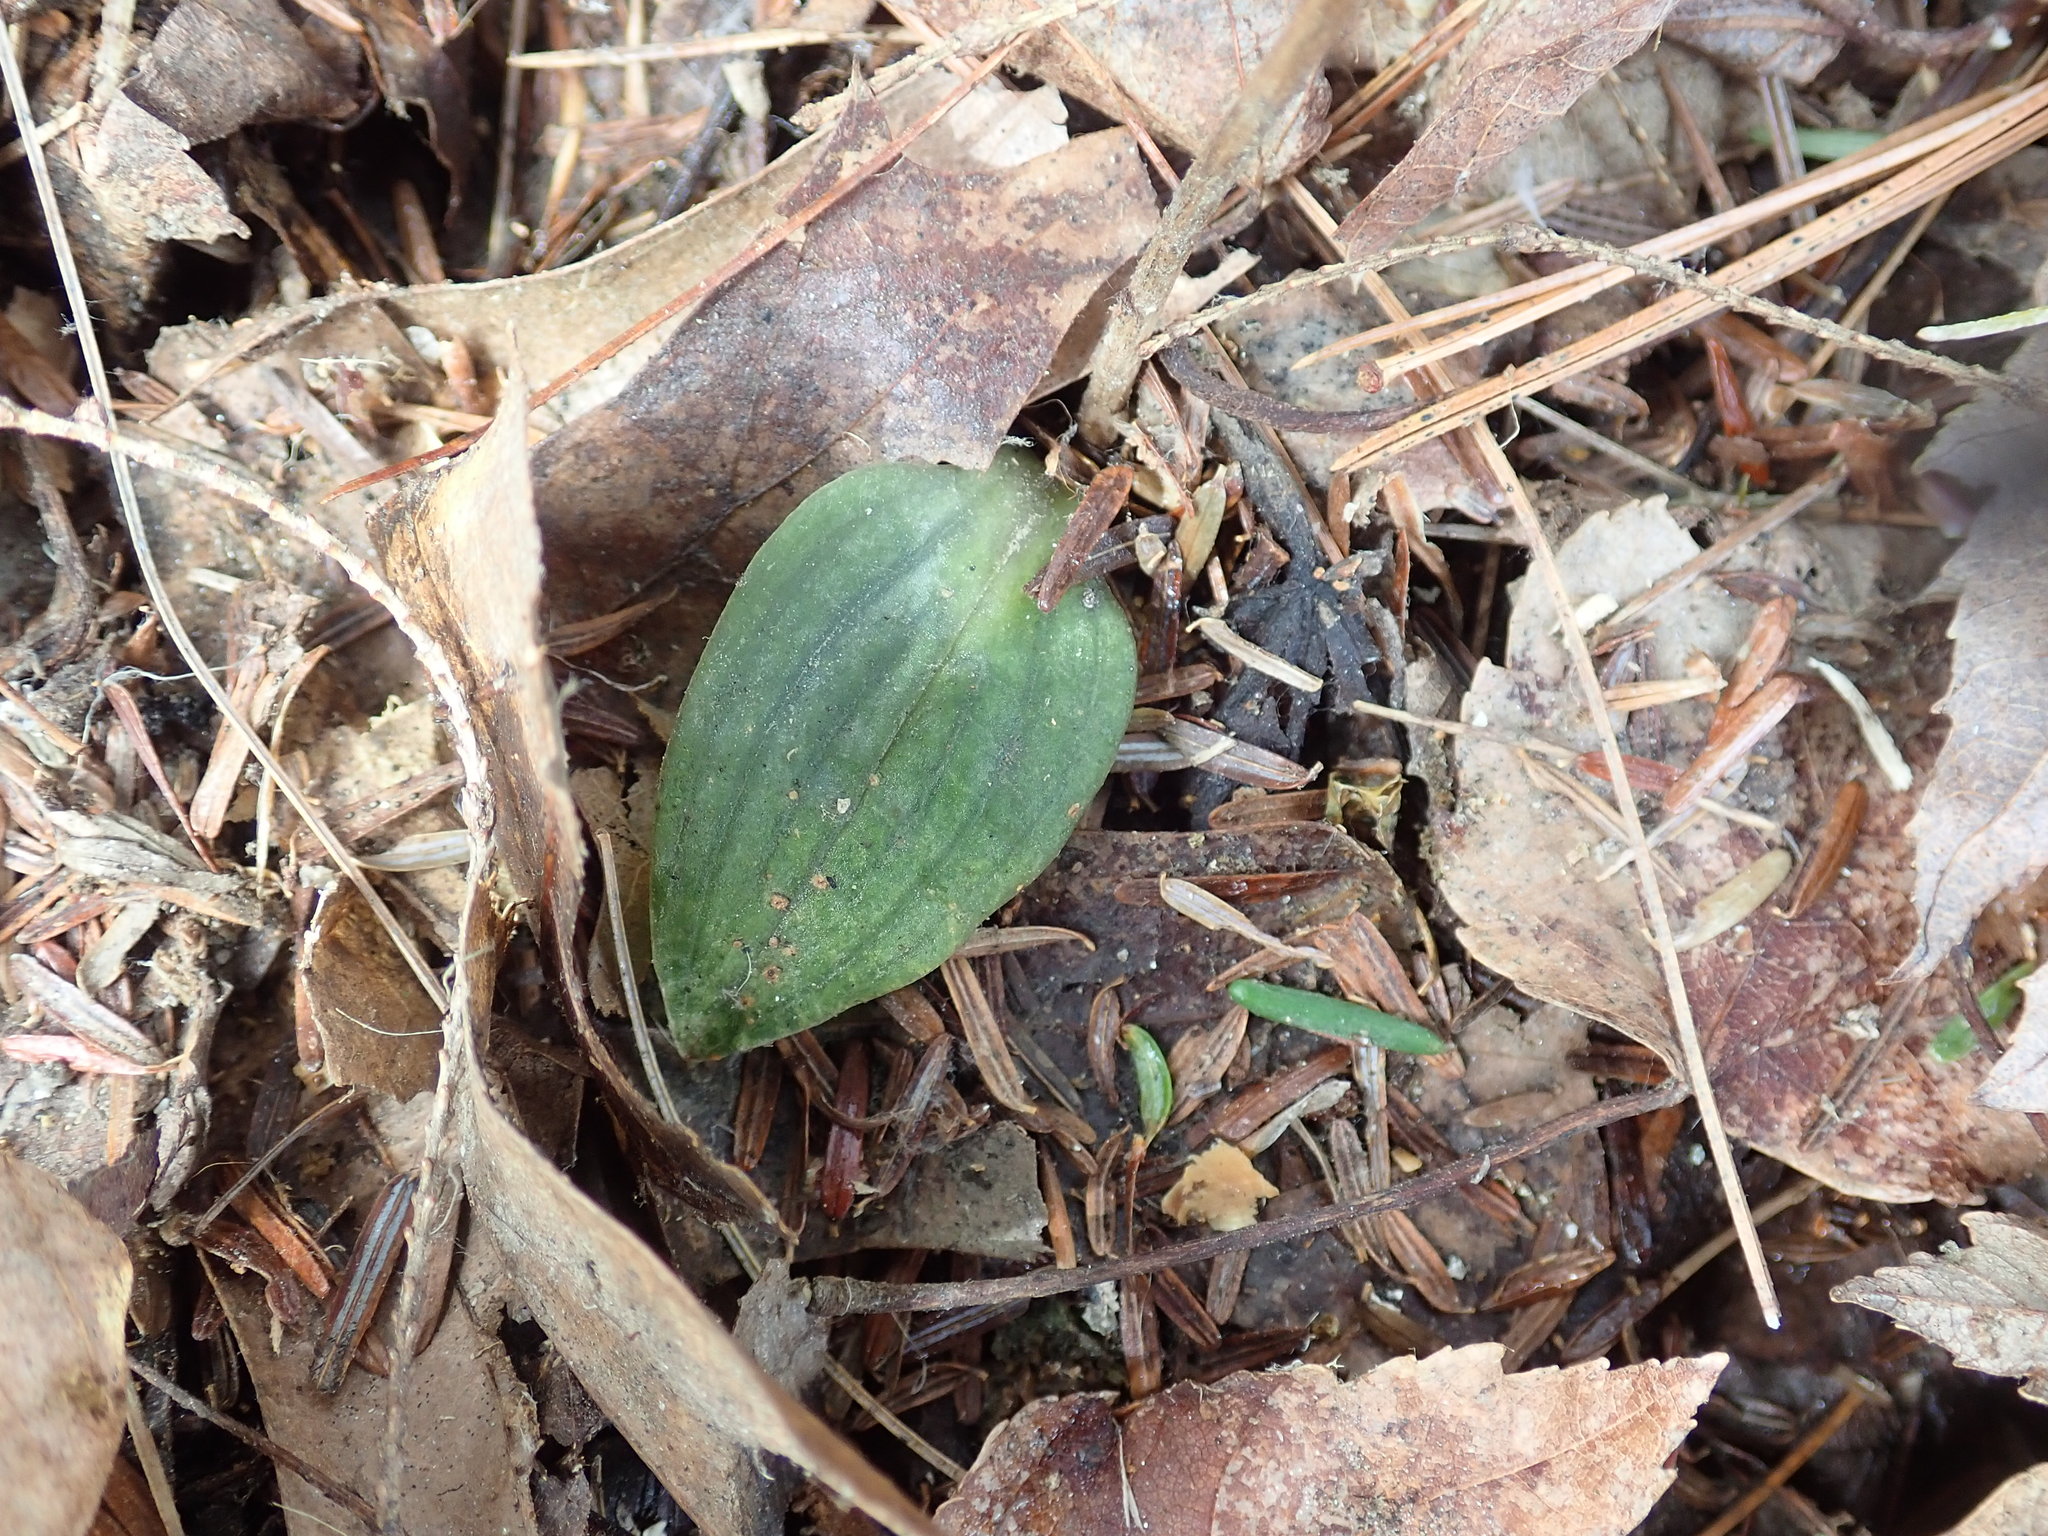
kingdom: Plantae
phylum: Tracheophyta
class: Liliopsida
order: Asparagales
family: Orchidaceae
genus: Goodyera
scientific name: Goodyera tesselata
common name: Checkered rattlesnake-plantain
